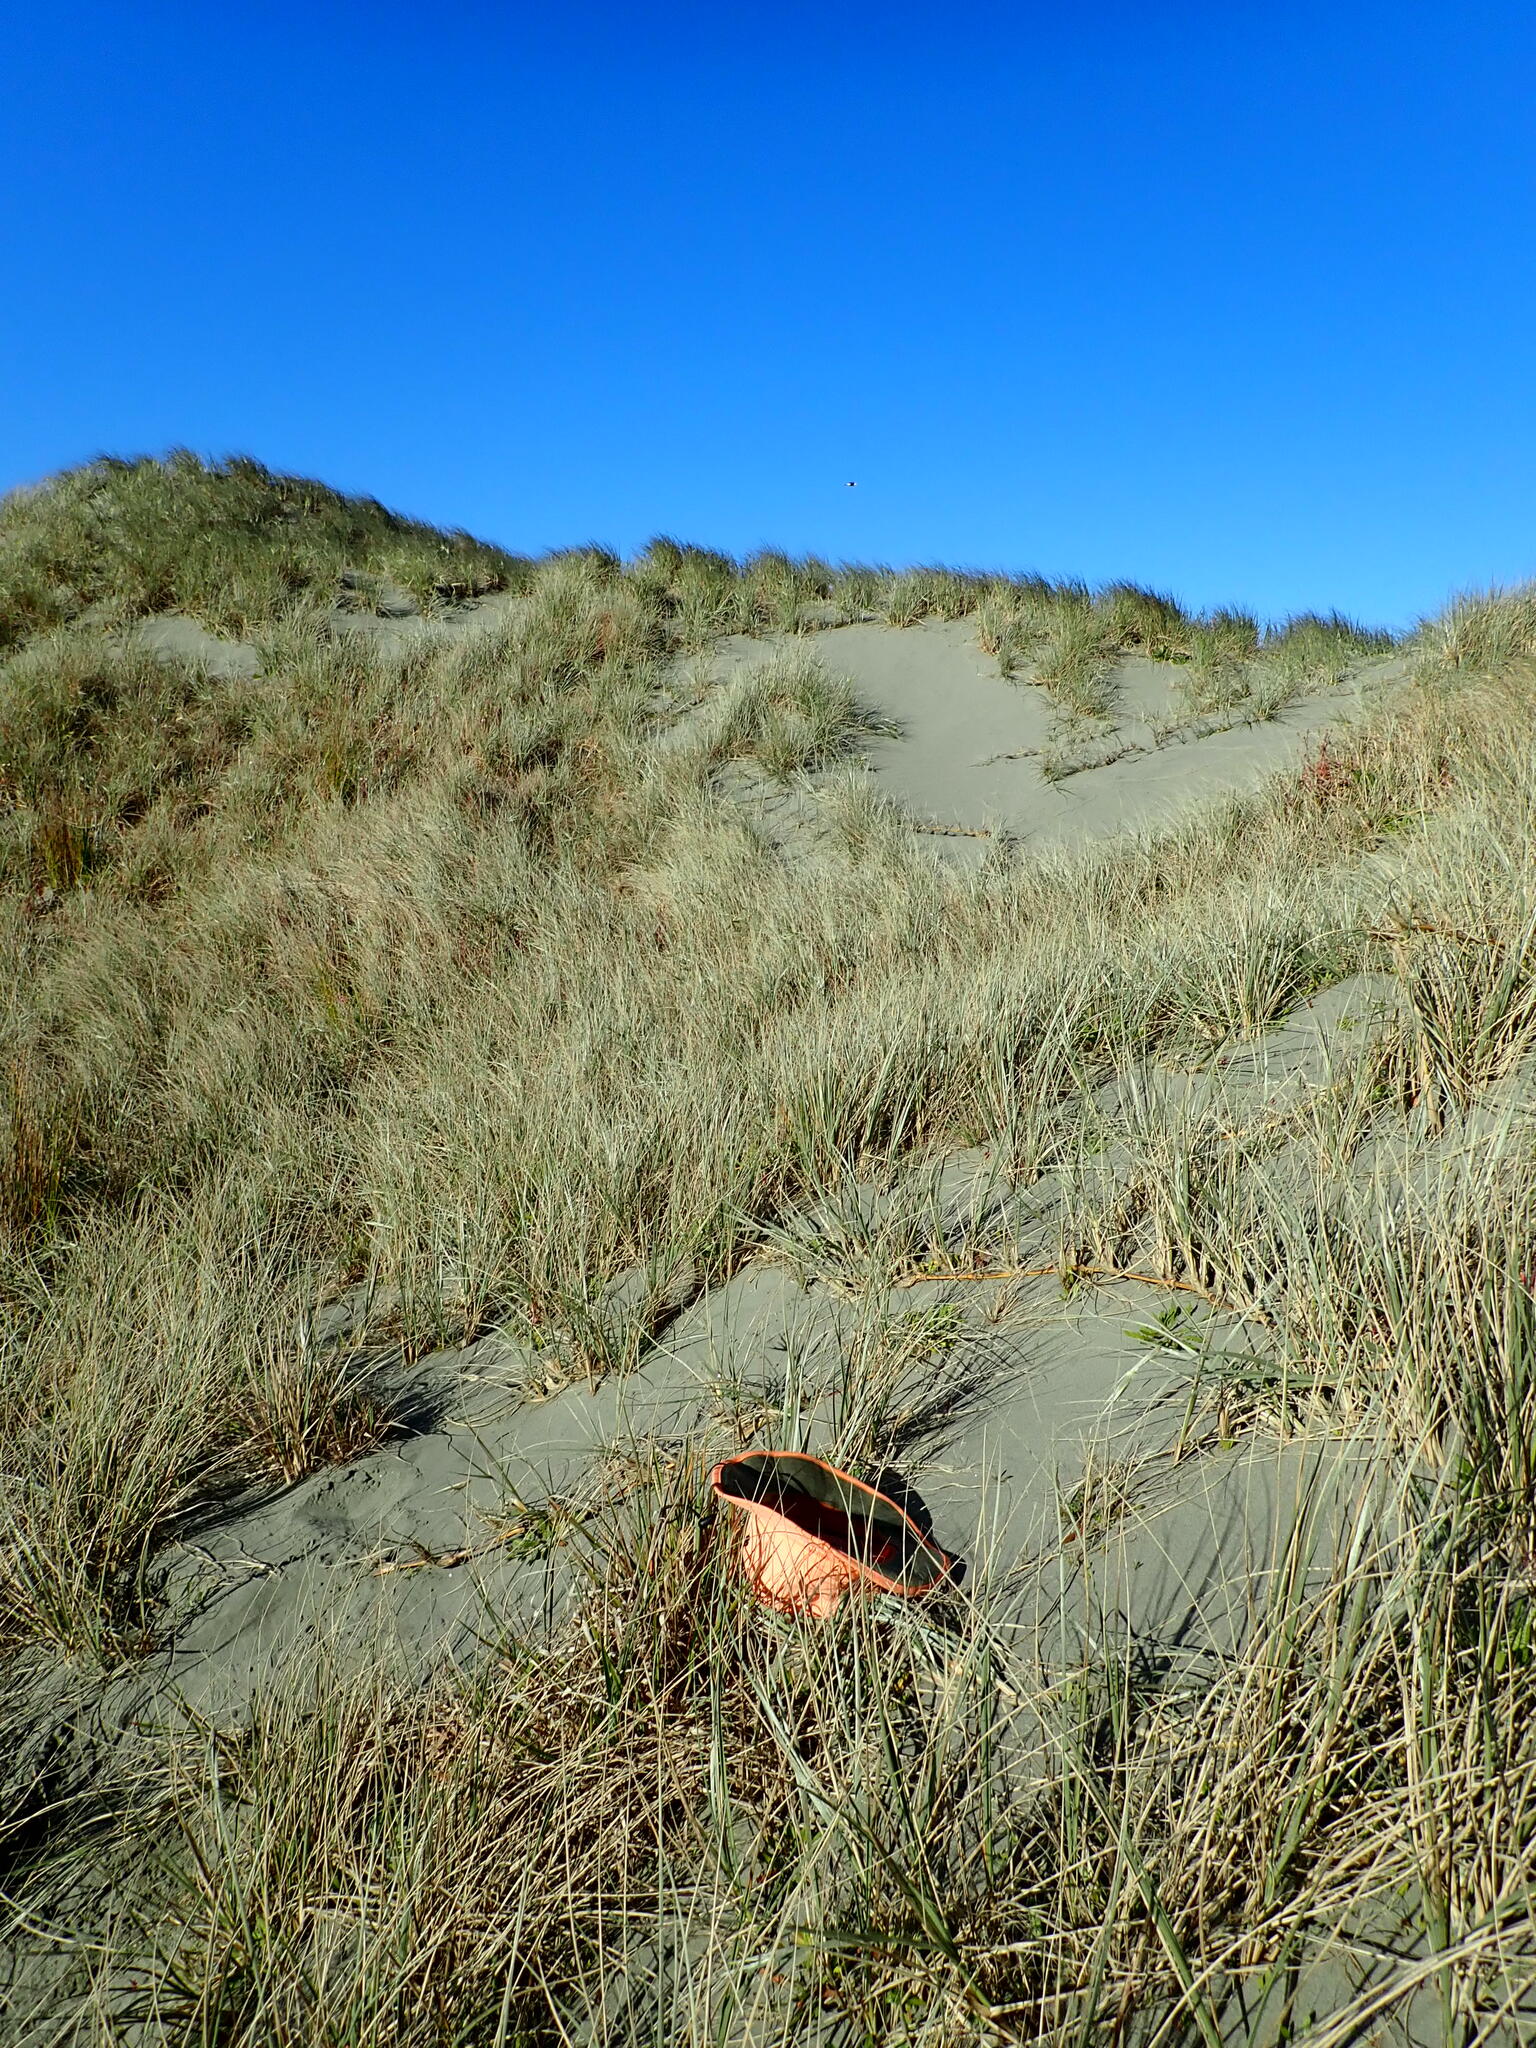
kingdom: Plantae
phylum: Tracheophyta
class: Liliopsida
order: Poales
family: Poaceae
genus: Lachnagrostis
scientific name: Lachnagrostis billardierei
